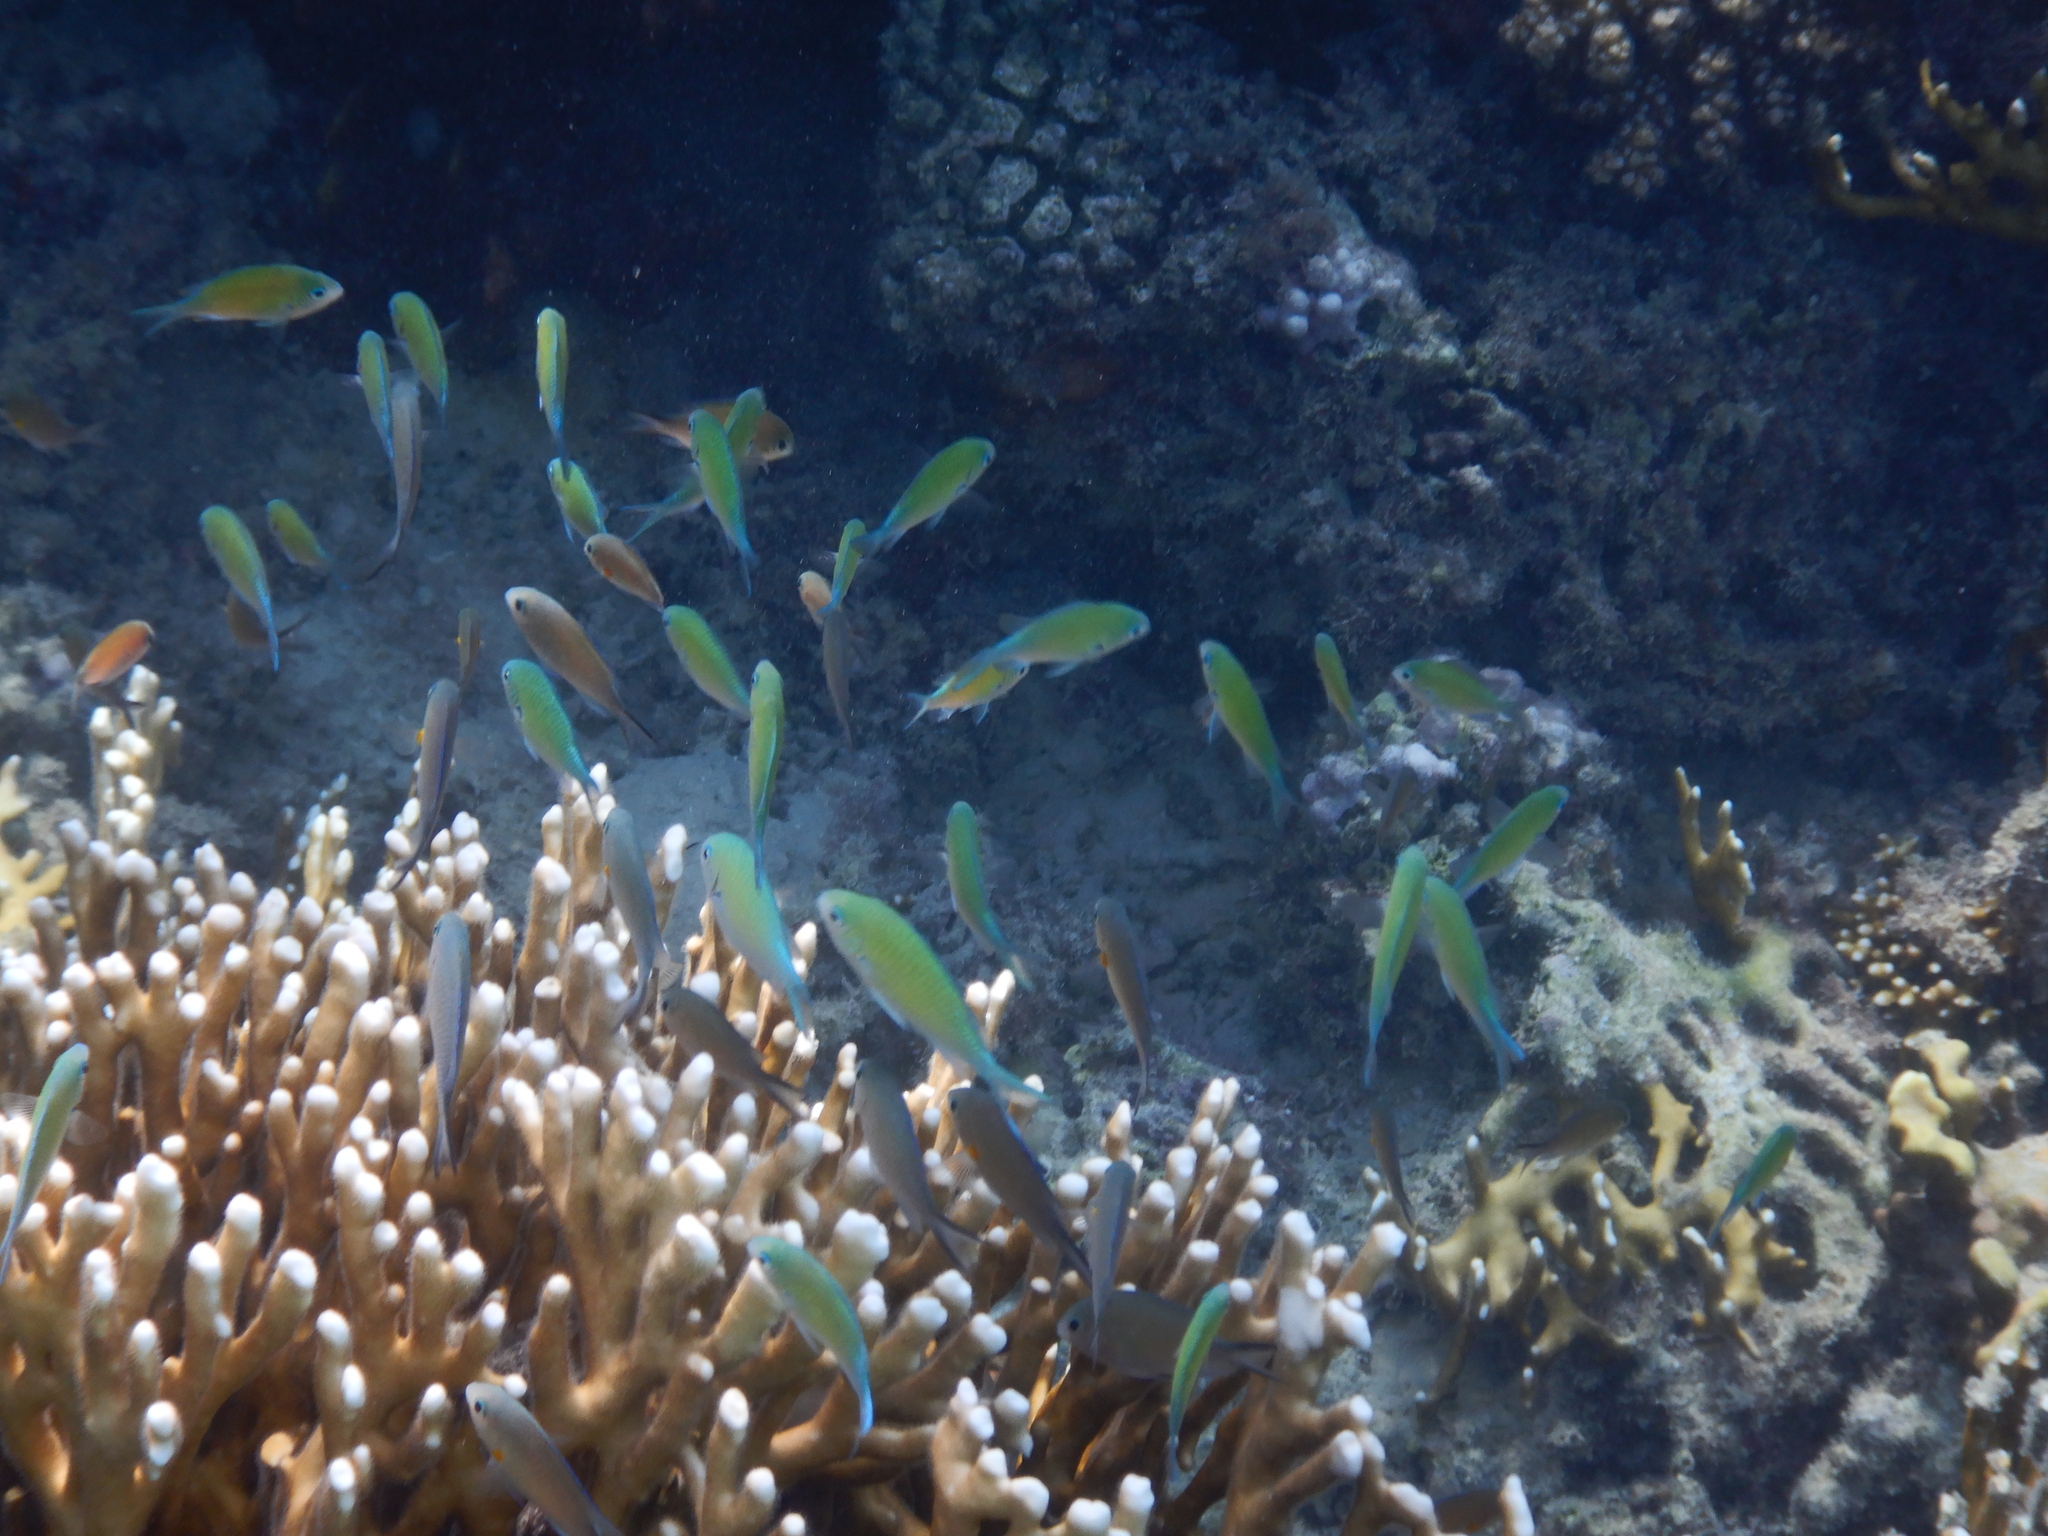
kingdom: Animalia
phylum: Chordata
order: Perciformes
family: Pomacentridae
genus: Chromis
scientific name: Chromis viridis
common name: Blue-green chromis
